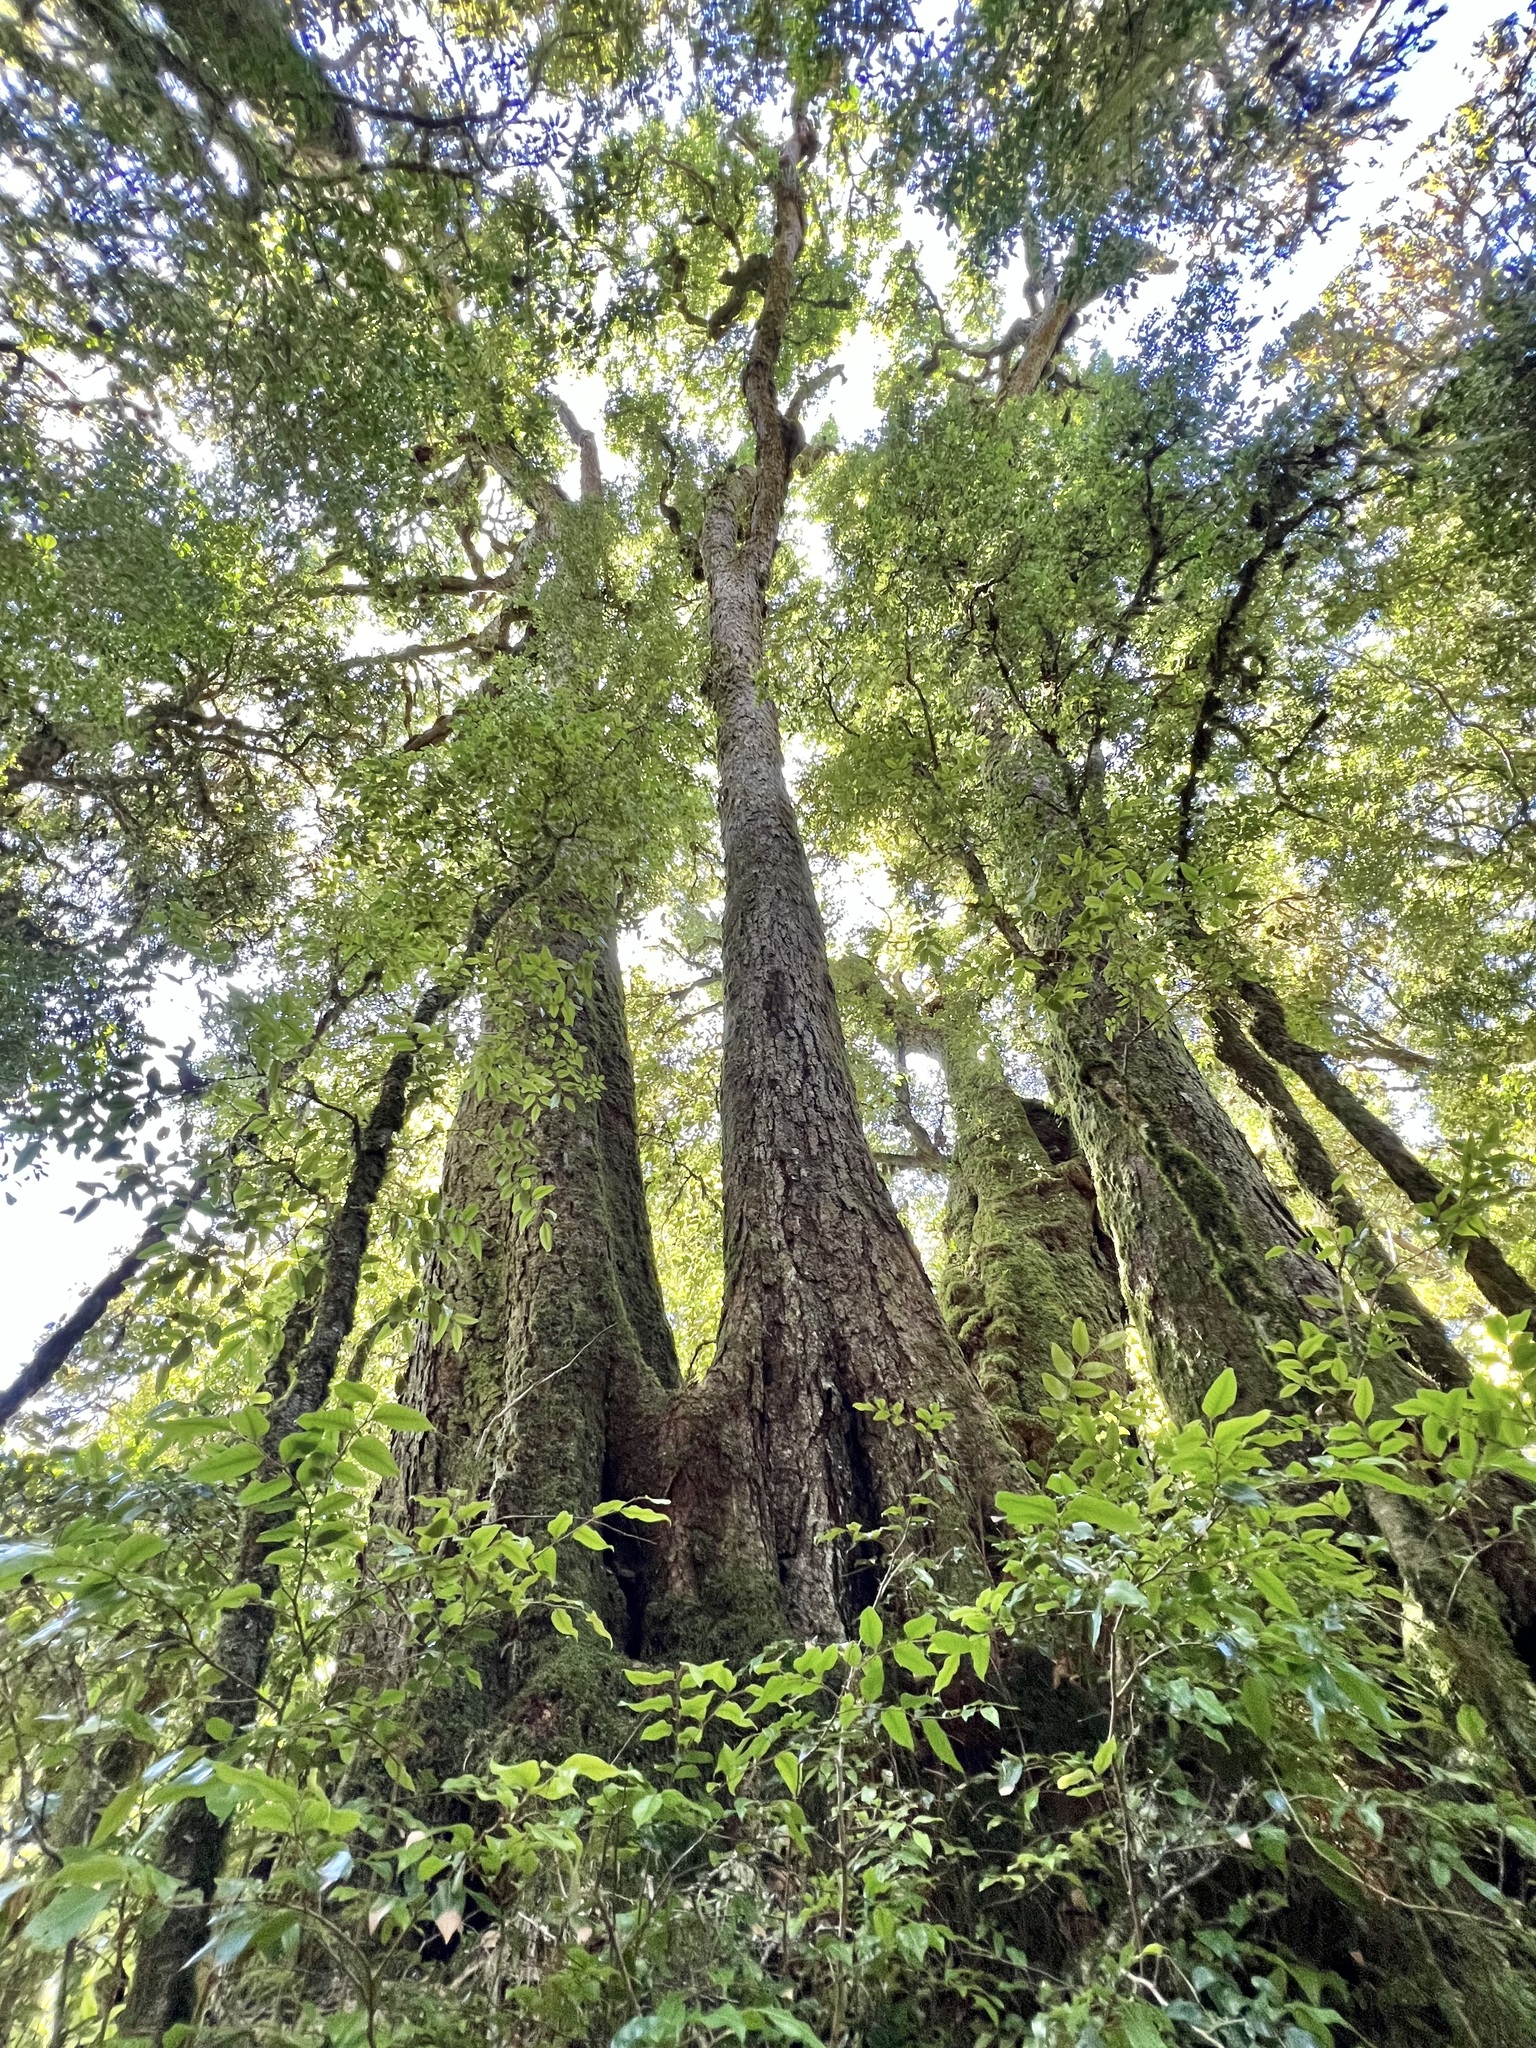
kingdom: Plantae
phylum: Tracheophyta
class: Magnoliopsida
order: Fagales
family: Nothofagaceae
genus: Nothofagus
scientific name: Nothofagus moorei
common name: Antarctic beech
